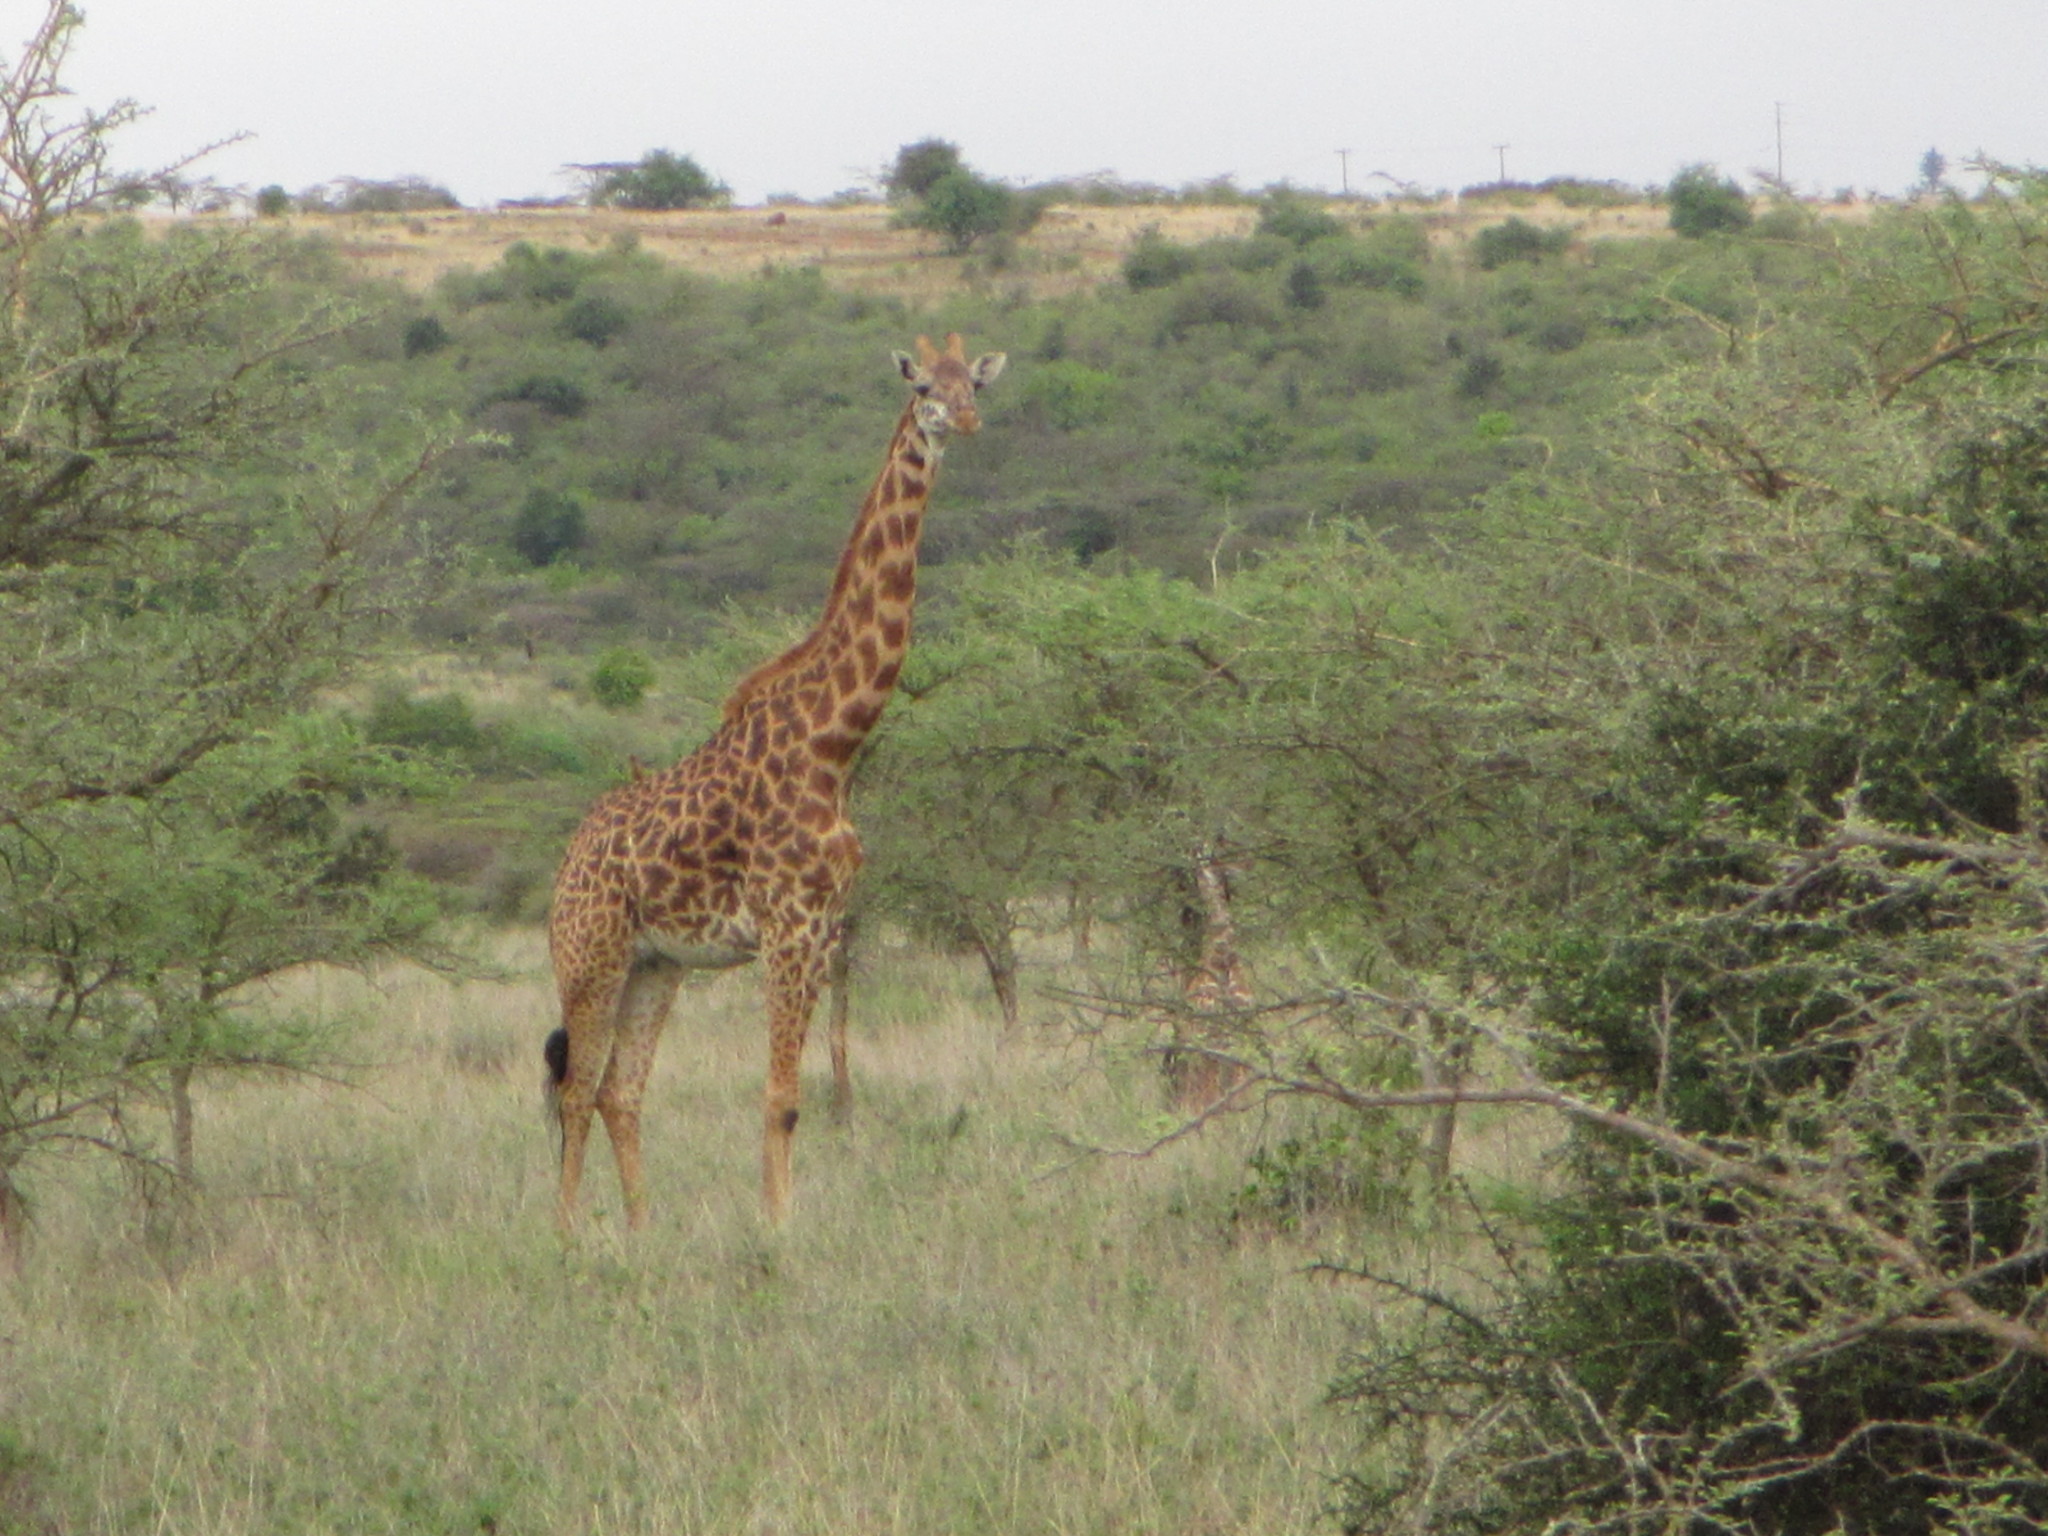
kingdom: Animalia
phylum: Chordata
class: Mammalia
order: Artiodactyla
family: Giraffidae
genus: Giraffa
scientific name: Giraffa tippelskirchi
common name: Masai giraffe
